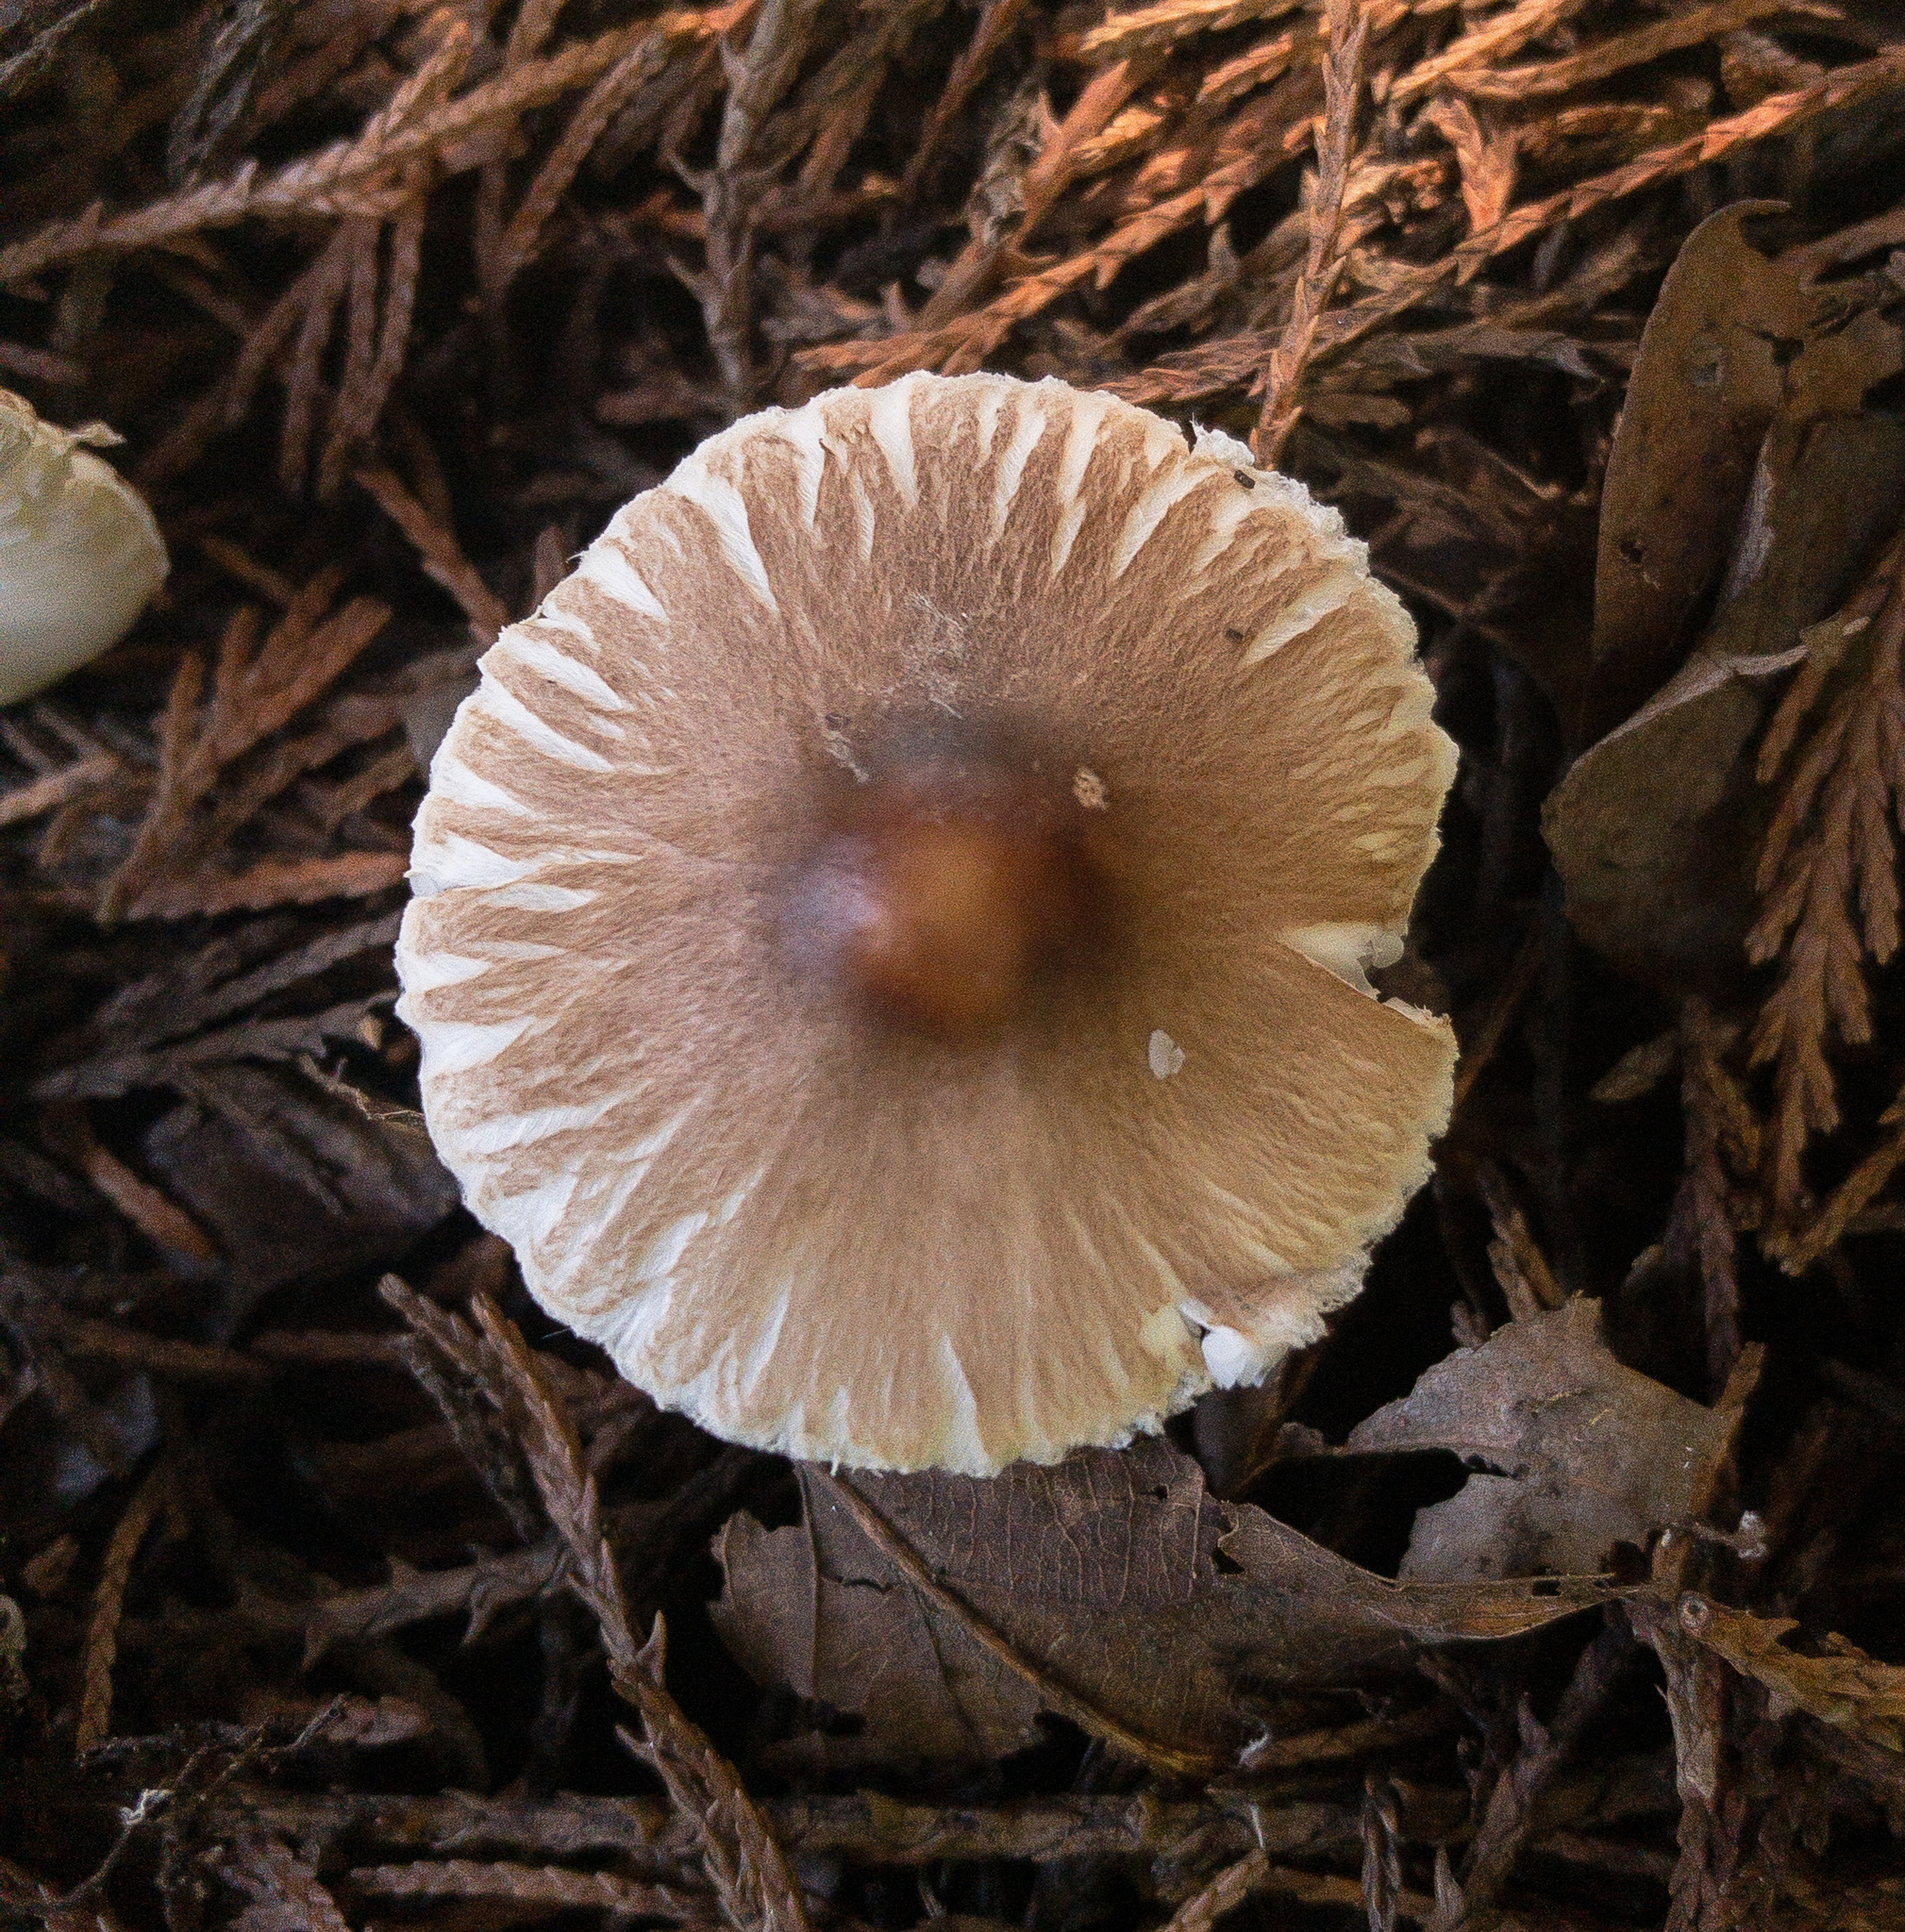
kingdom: Fungi
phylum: Basidiomycota
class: Agaricomycetes
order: Agaricales
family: Agaricaceae
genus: Leucoagaricus
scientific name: Leucoagaricus rubrotinctus
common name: Ruby dapperling
